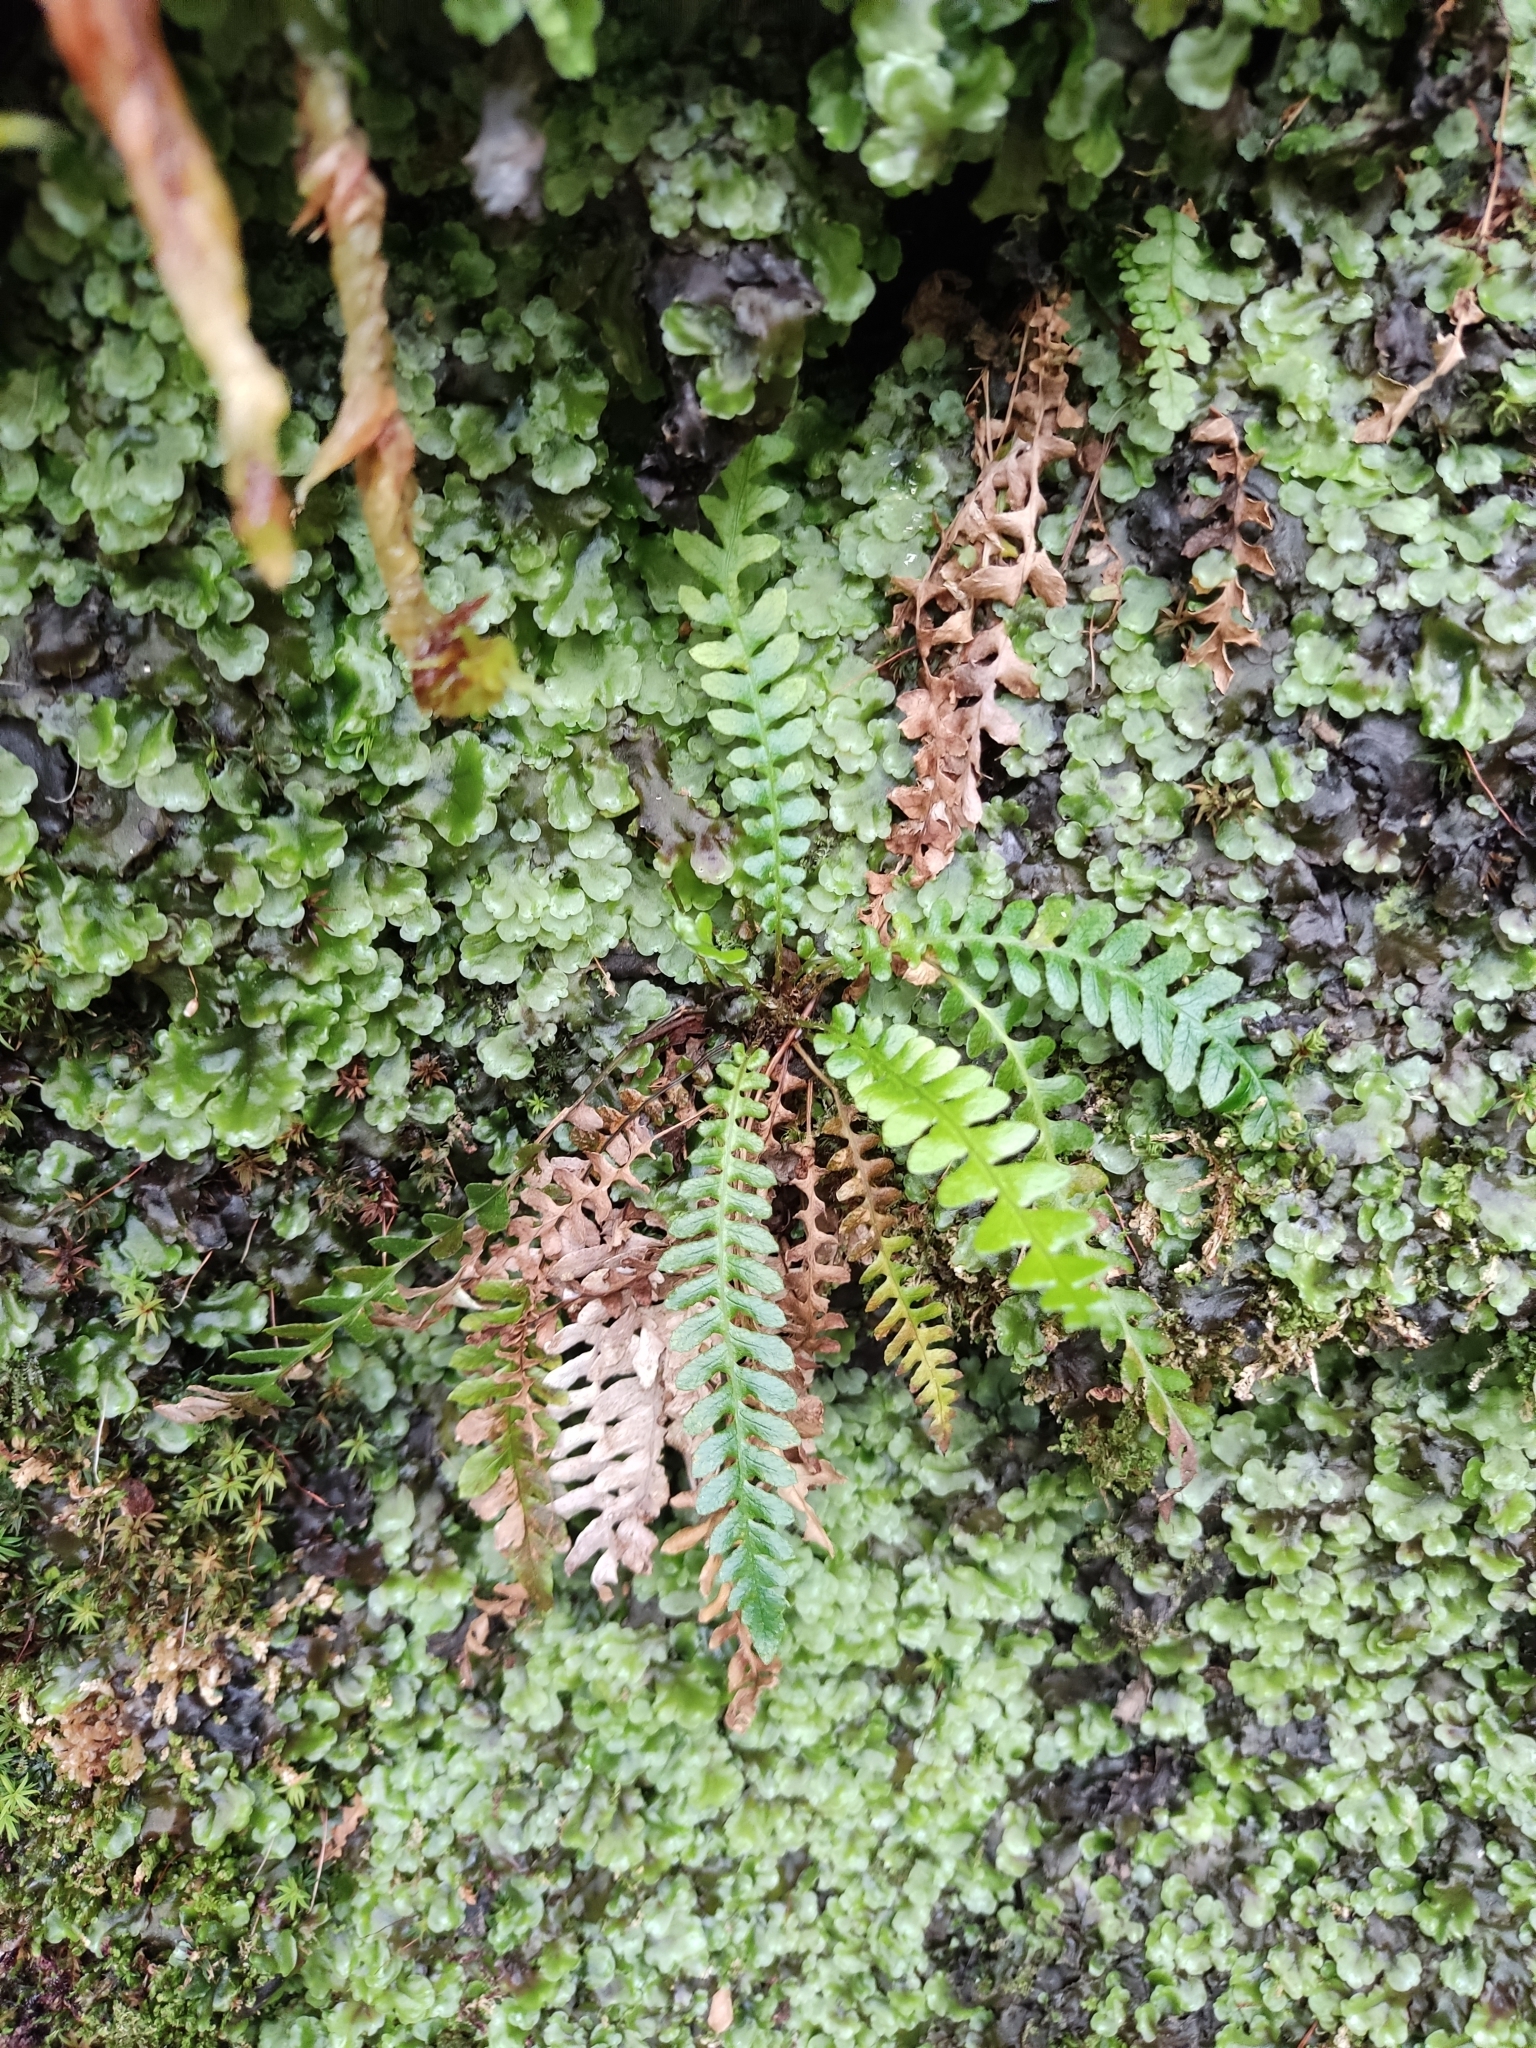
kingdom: Plantae
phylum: Tracheophyta
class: Polypodiopsida
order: Polypodiales
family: Blechnaceae
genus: Struthiopteris
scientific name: Struthiopteris spicant
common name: Deer fern
